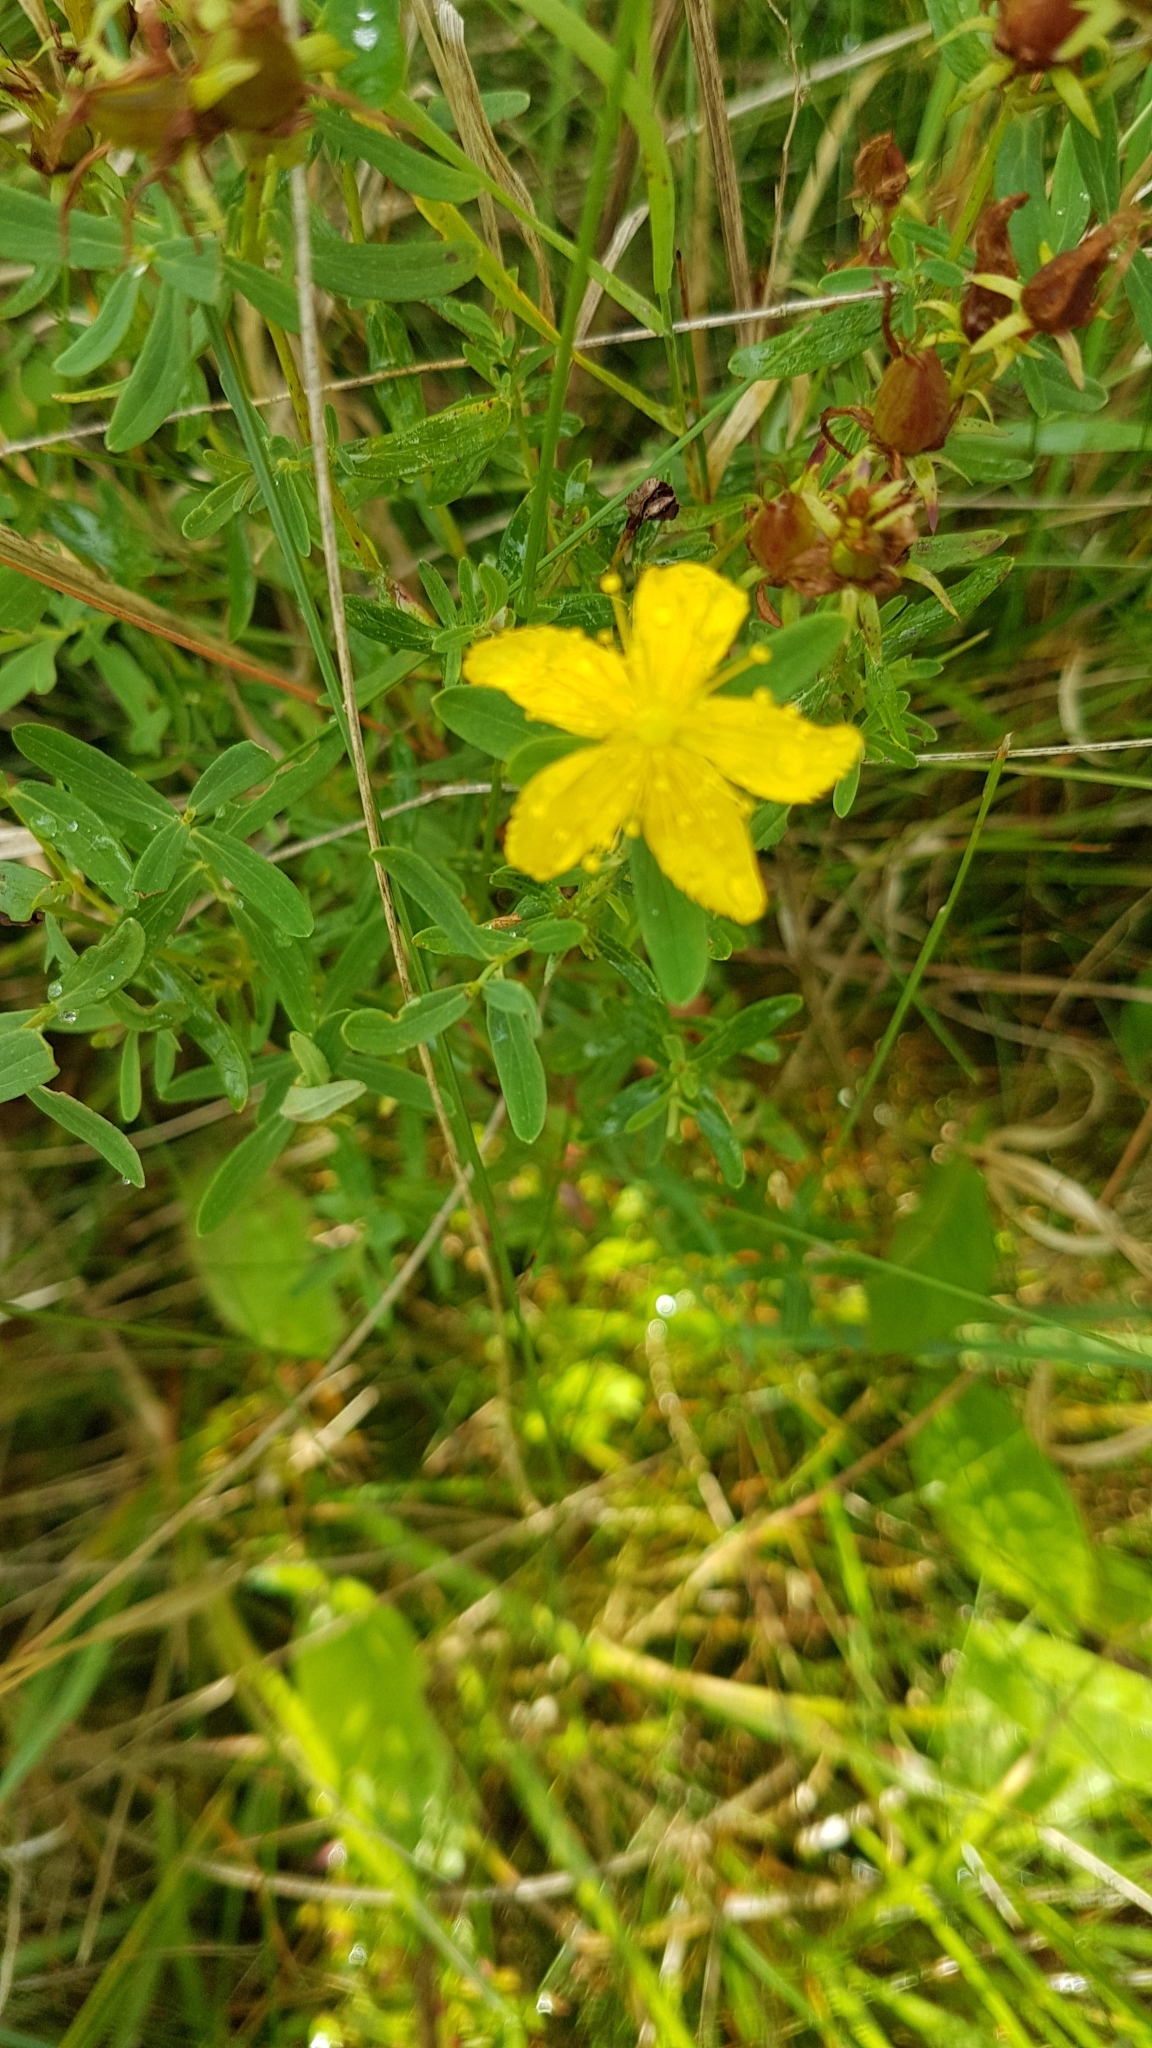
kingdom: Plantae
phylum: Tracheophyta
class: Magnoliopsida
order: Malpighiales
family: Hypericaceae
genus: Hypericum
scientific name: Hypericum perforatum
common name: Common st. johnswort
